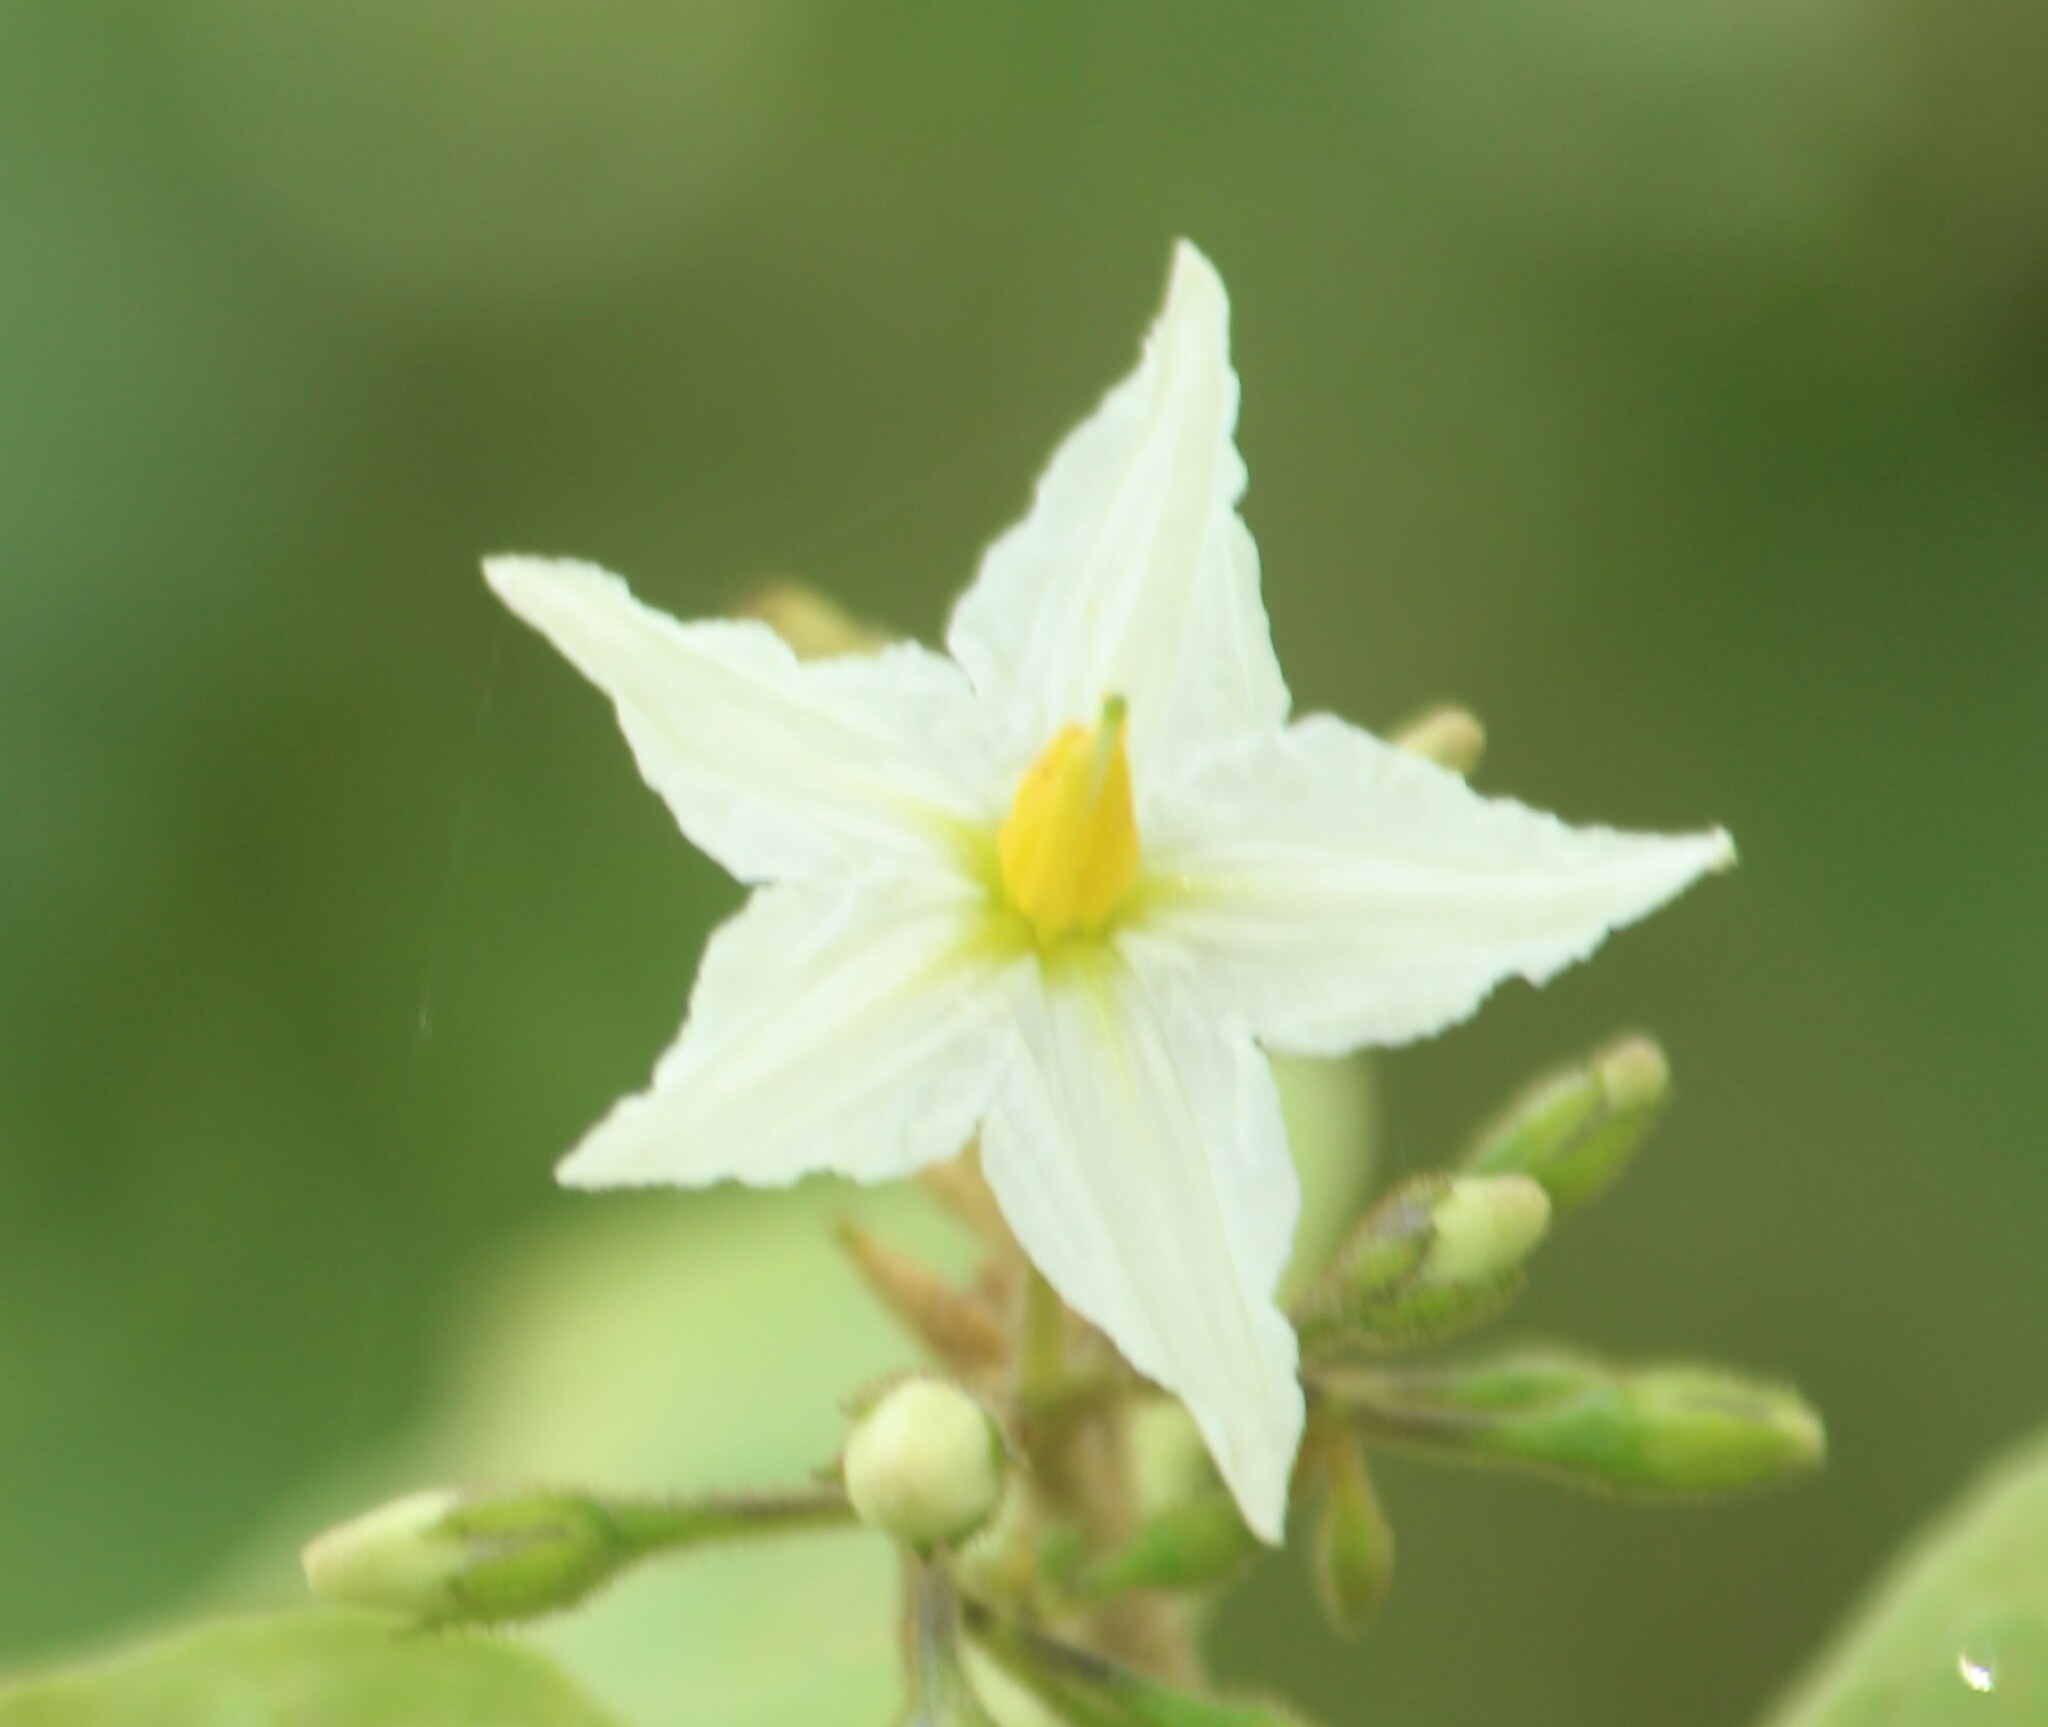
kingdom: Plantae
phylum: Tracheophyta
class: Magnoliopsida
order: Solanales
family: Solanaceae
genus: Solanum
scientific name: Solanum torvum
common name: Turkey berry
